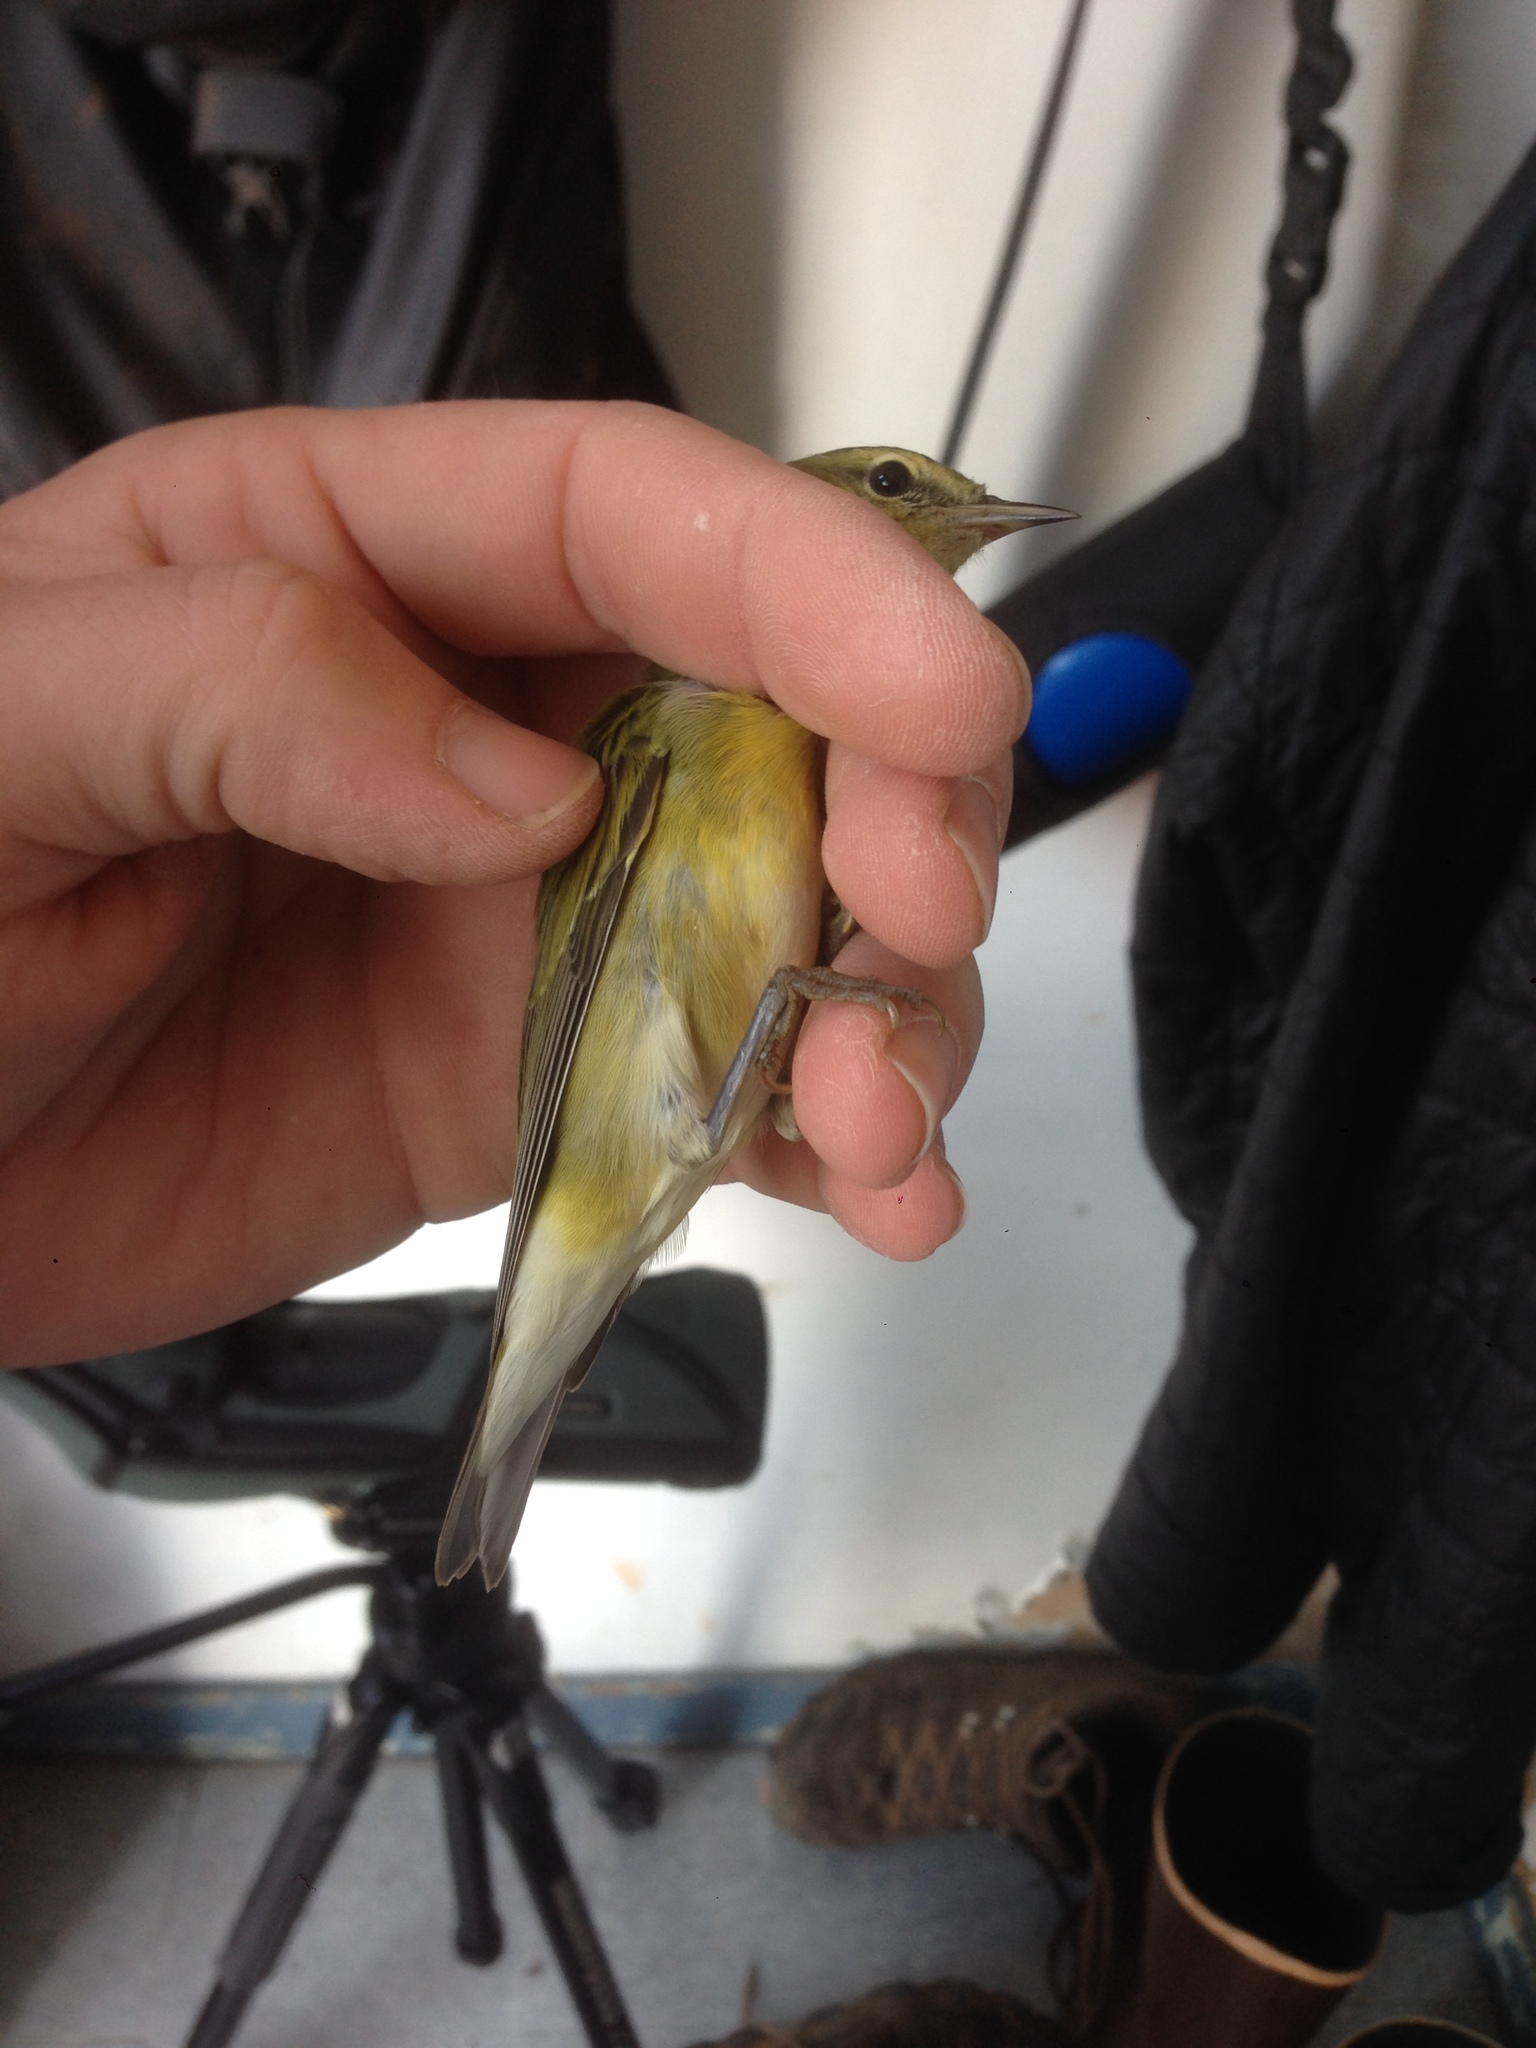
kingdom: Animalia
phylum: Chordata
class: Aves
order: Passeriformes
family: Parulidae
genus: Leiothlypis
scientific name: Leiothlypis peregrina
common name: Tennessee warbler
